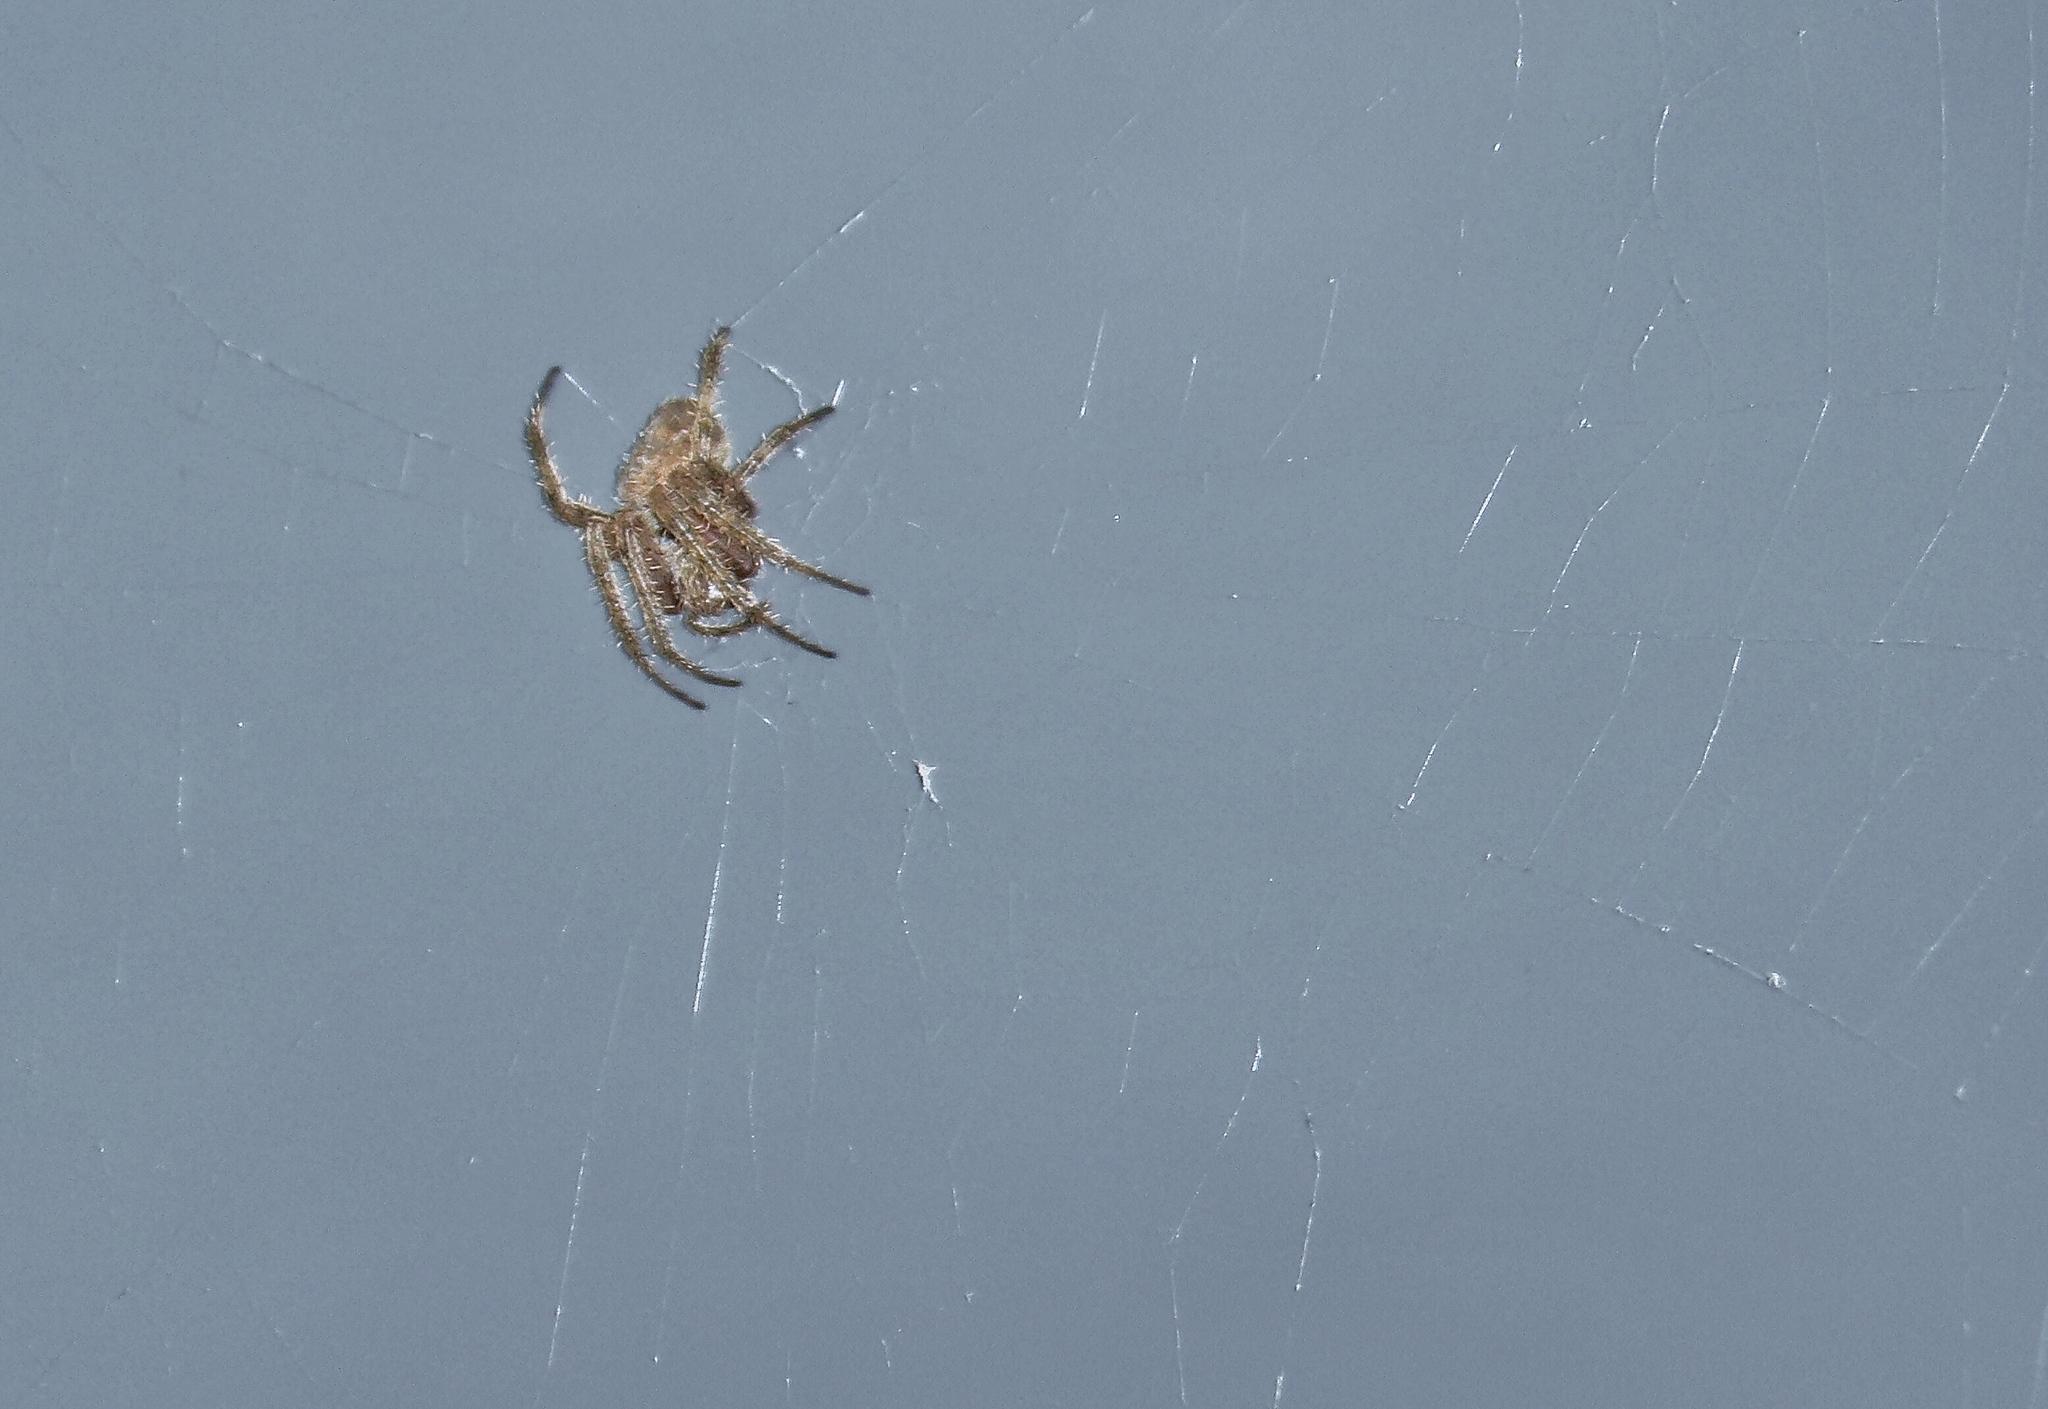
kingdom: Animalia
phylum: Arthropoda
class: Arachnida
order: Araneae
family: Araneidae
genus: Neoscona
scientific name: Neoscona crucifera
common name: Spotted orbweaver
